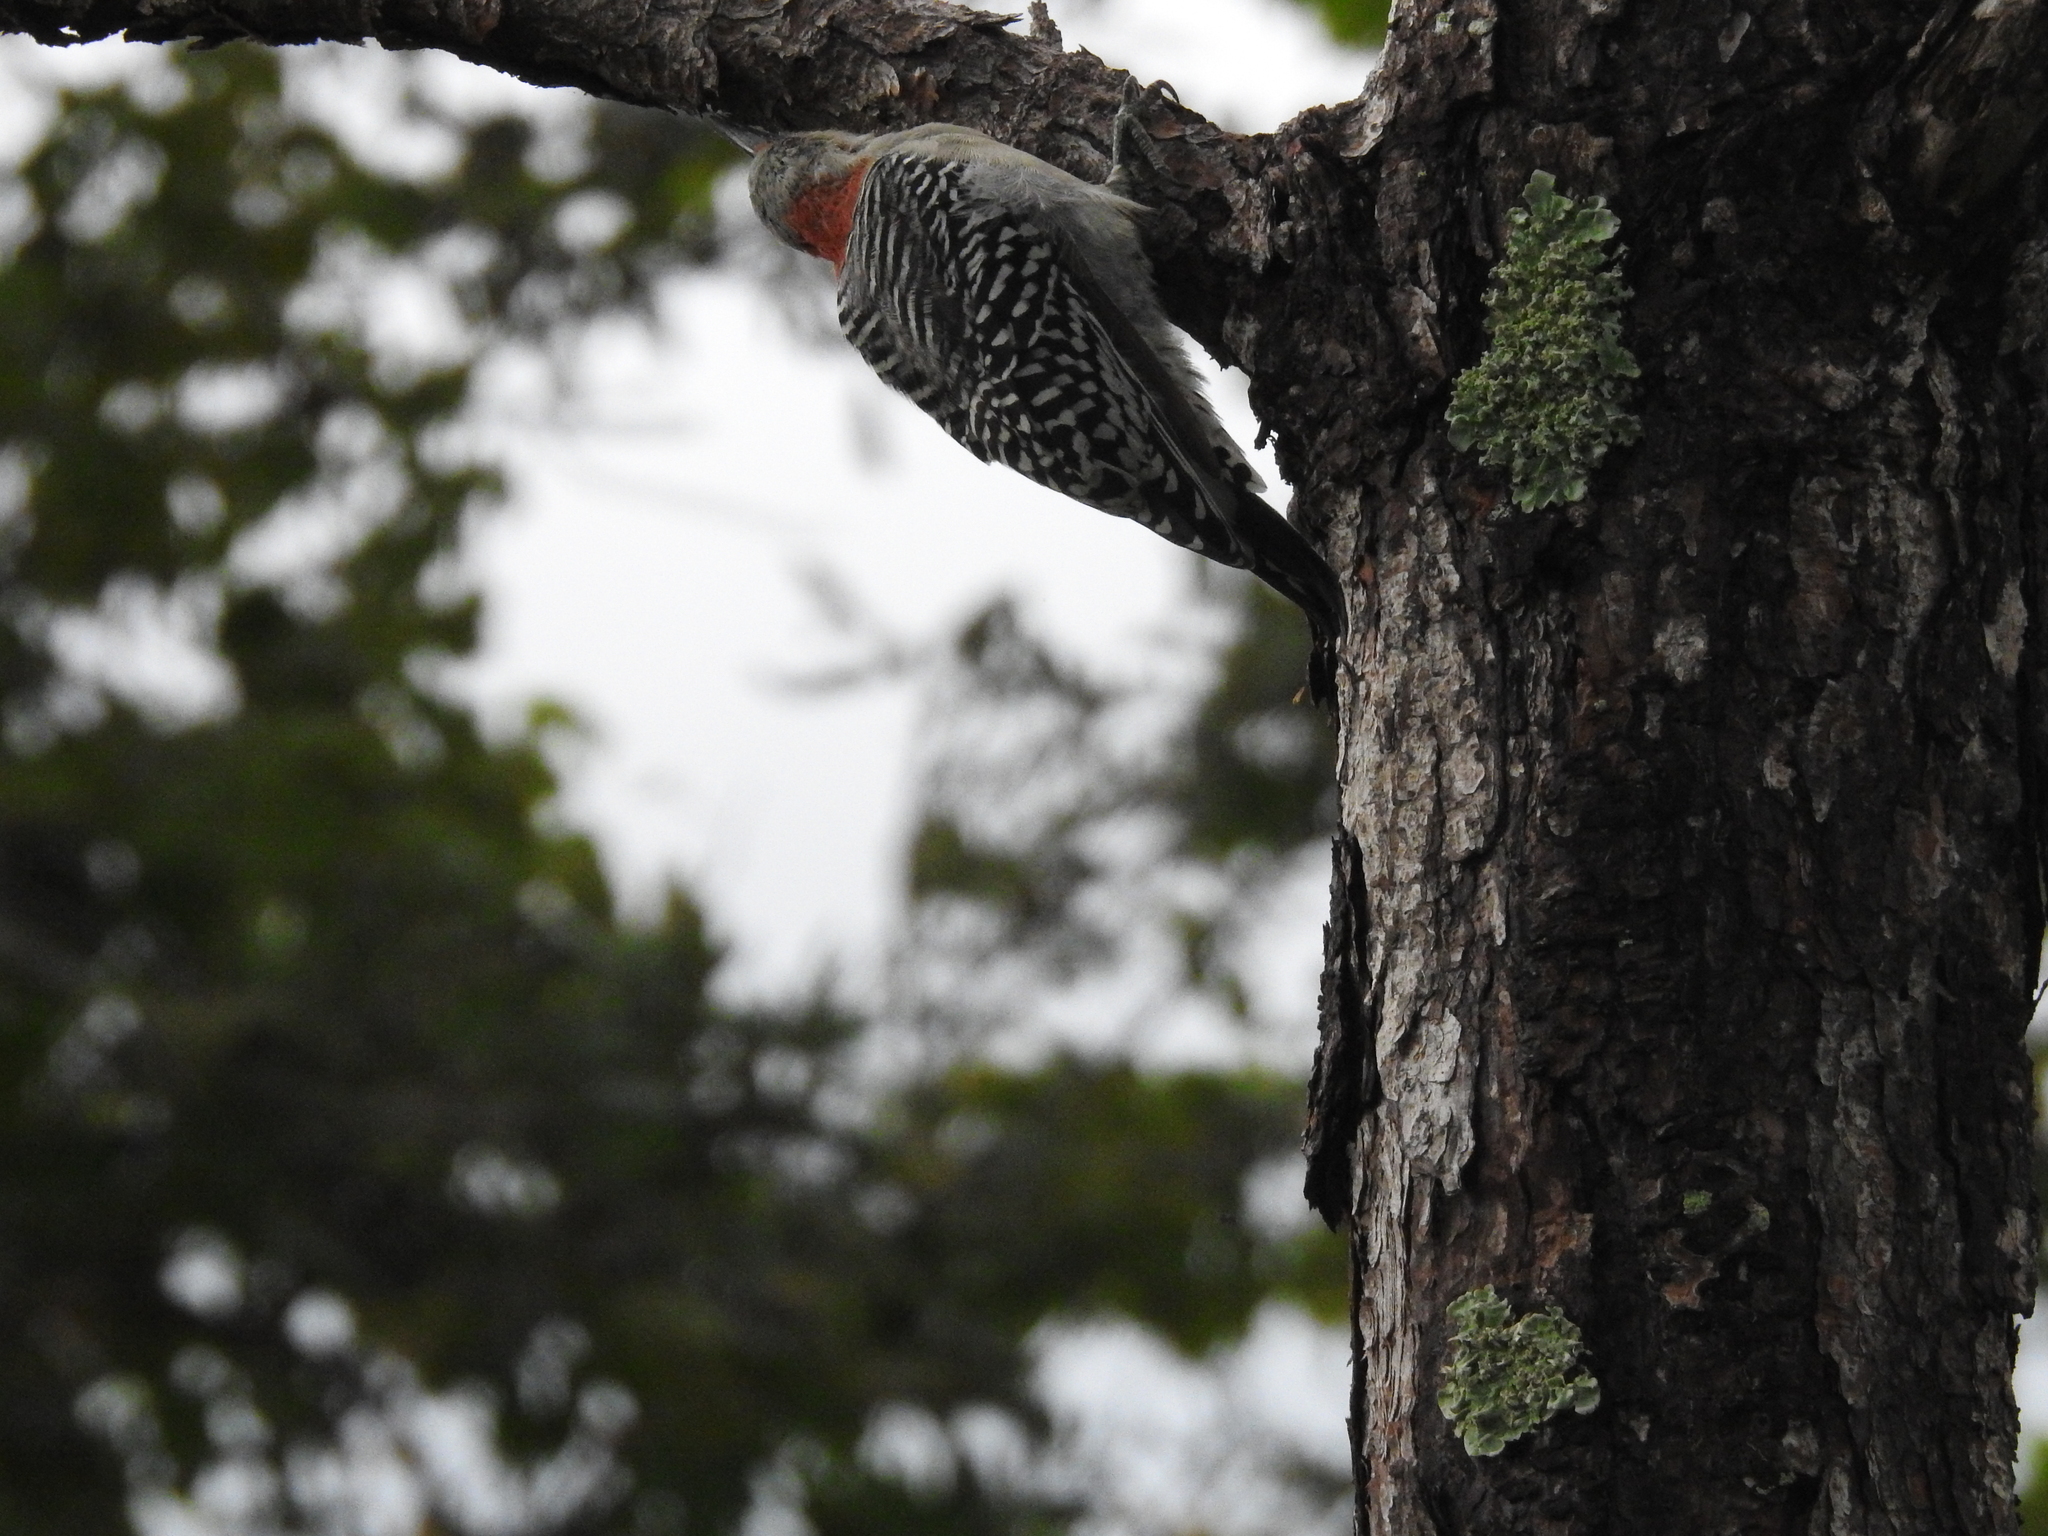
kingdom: Animalia
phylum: Chordata
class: Aves
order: Piciformes
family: Picidae
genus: Melanerpes
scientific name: Melanerpes carolinus
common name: Red-bellied woodpecker
